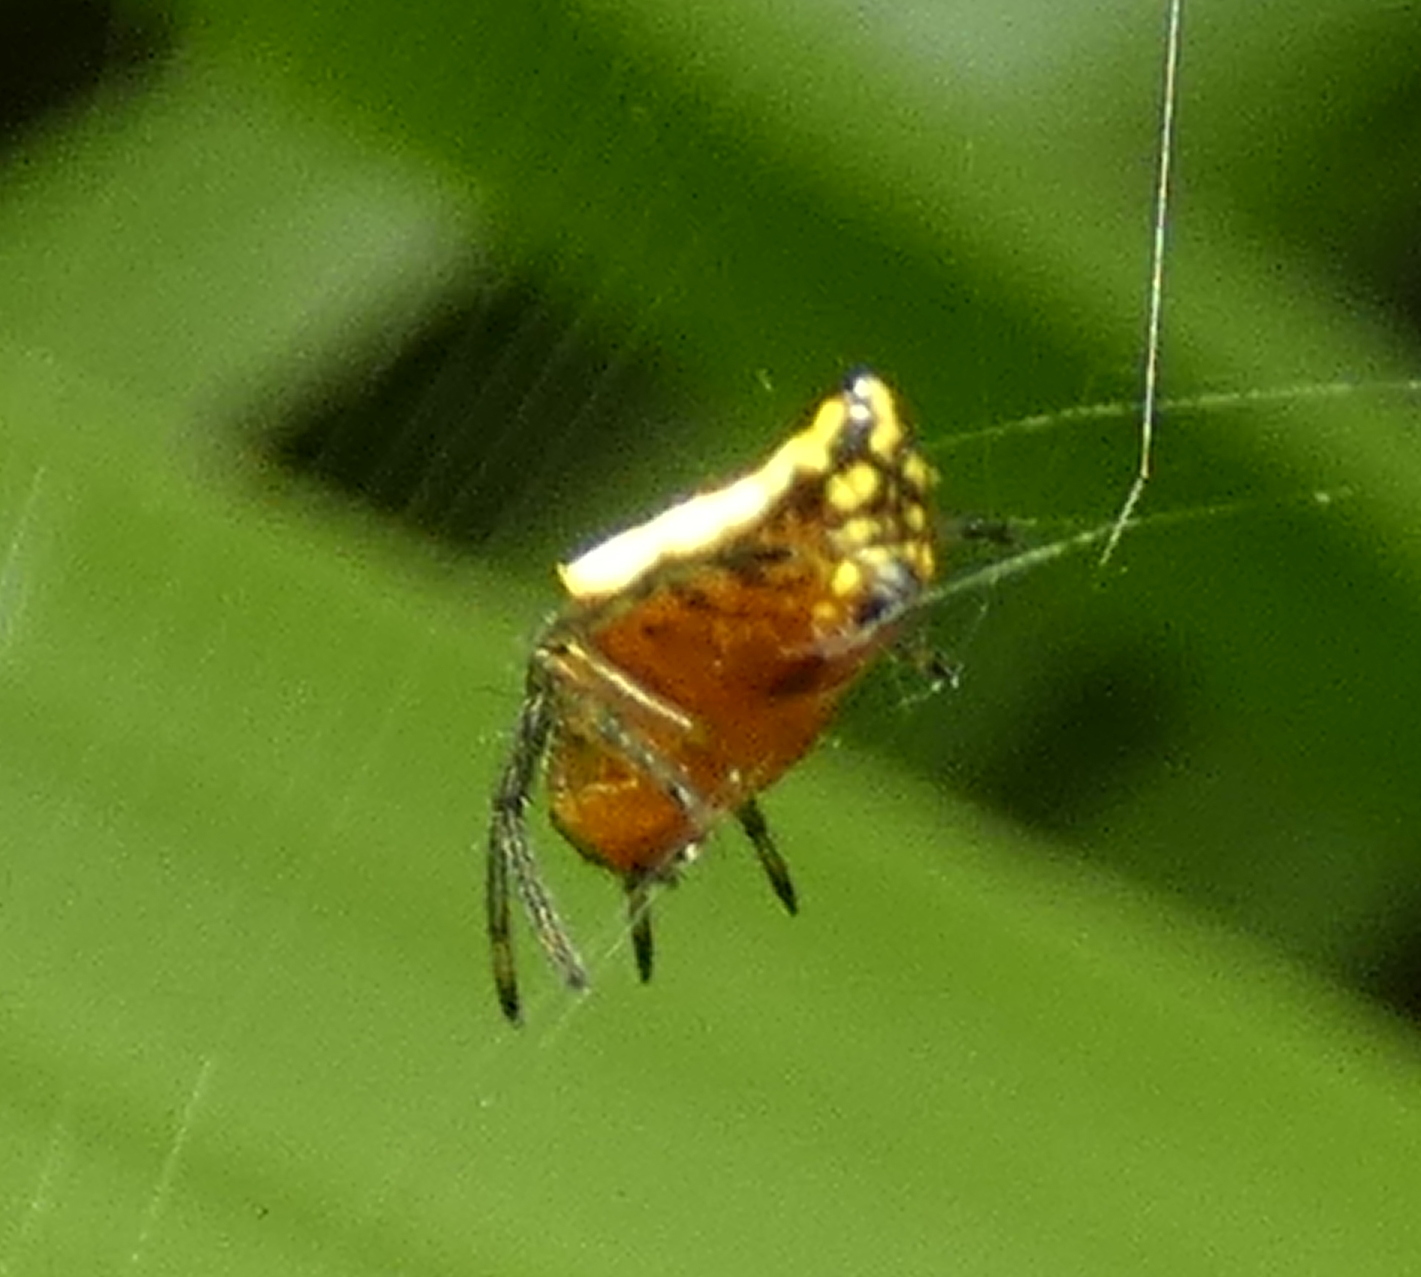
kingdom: Animalia
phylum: Arthropoda
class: Arachnida
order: Araneae
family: Araneidae
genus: Alpaida
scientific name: Alpaida bicornuta
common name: Orb weavers
